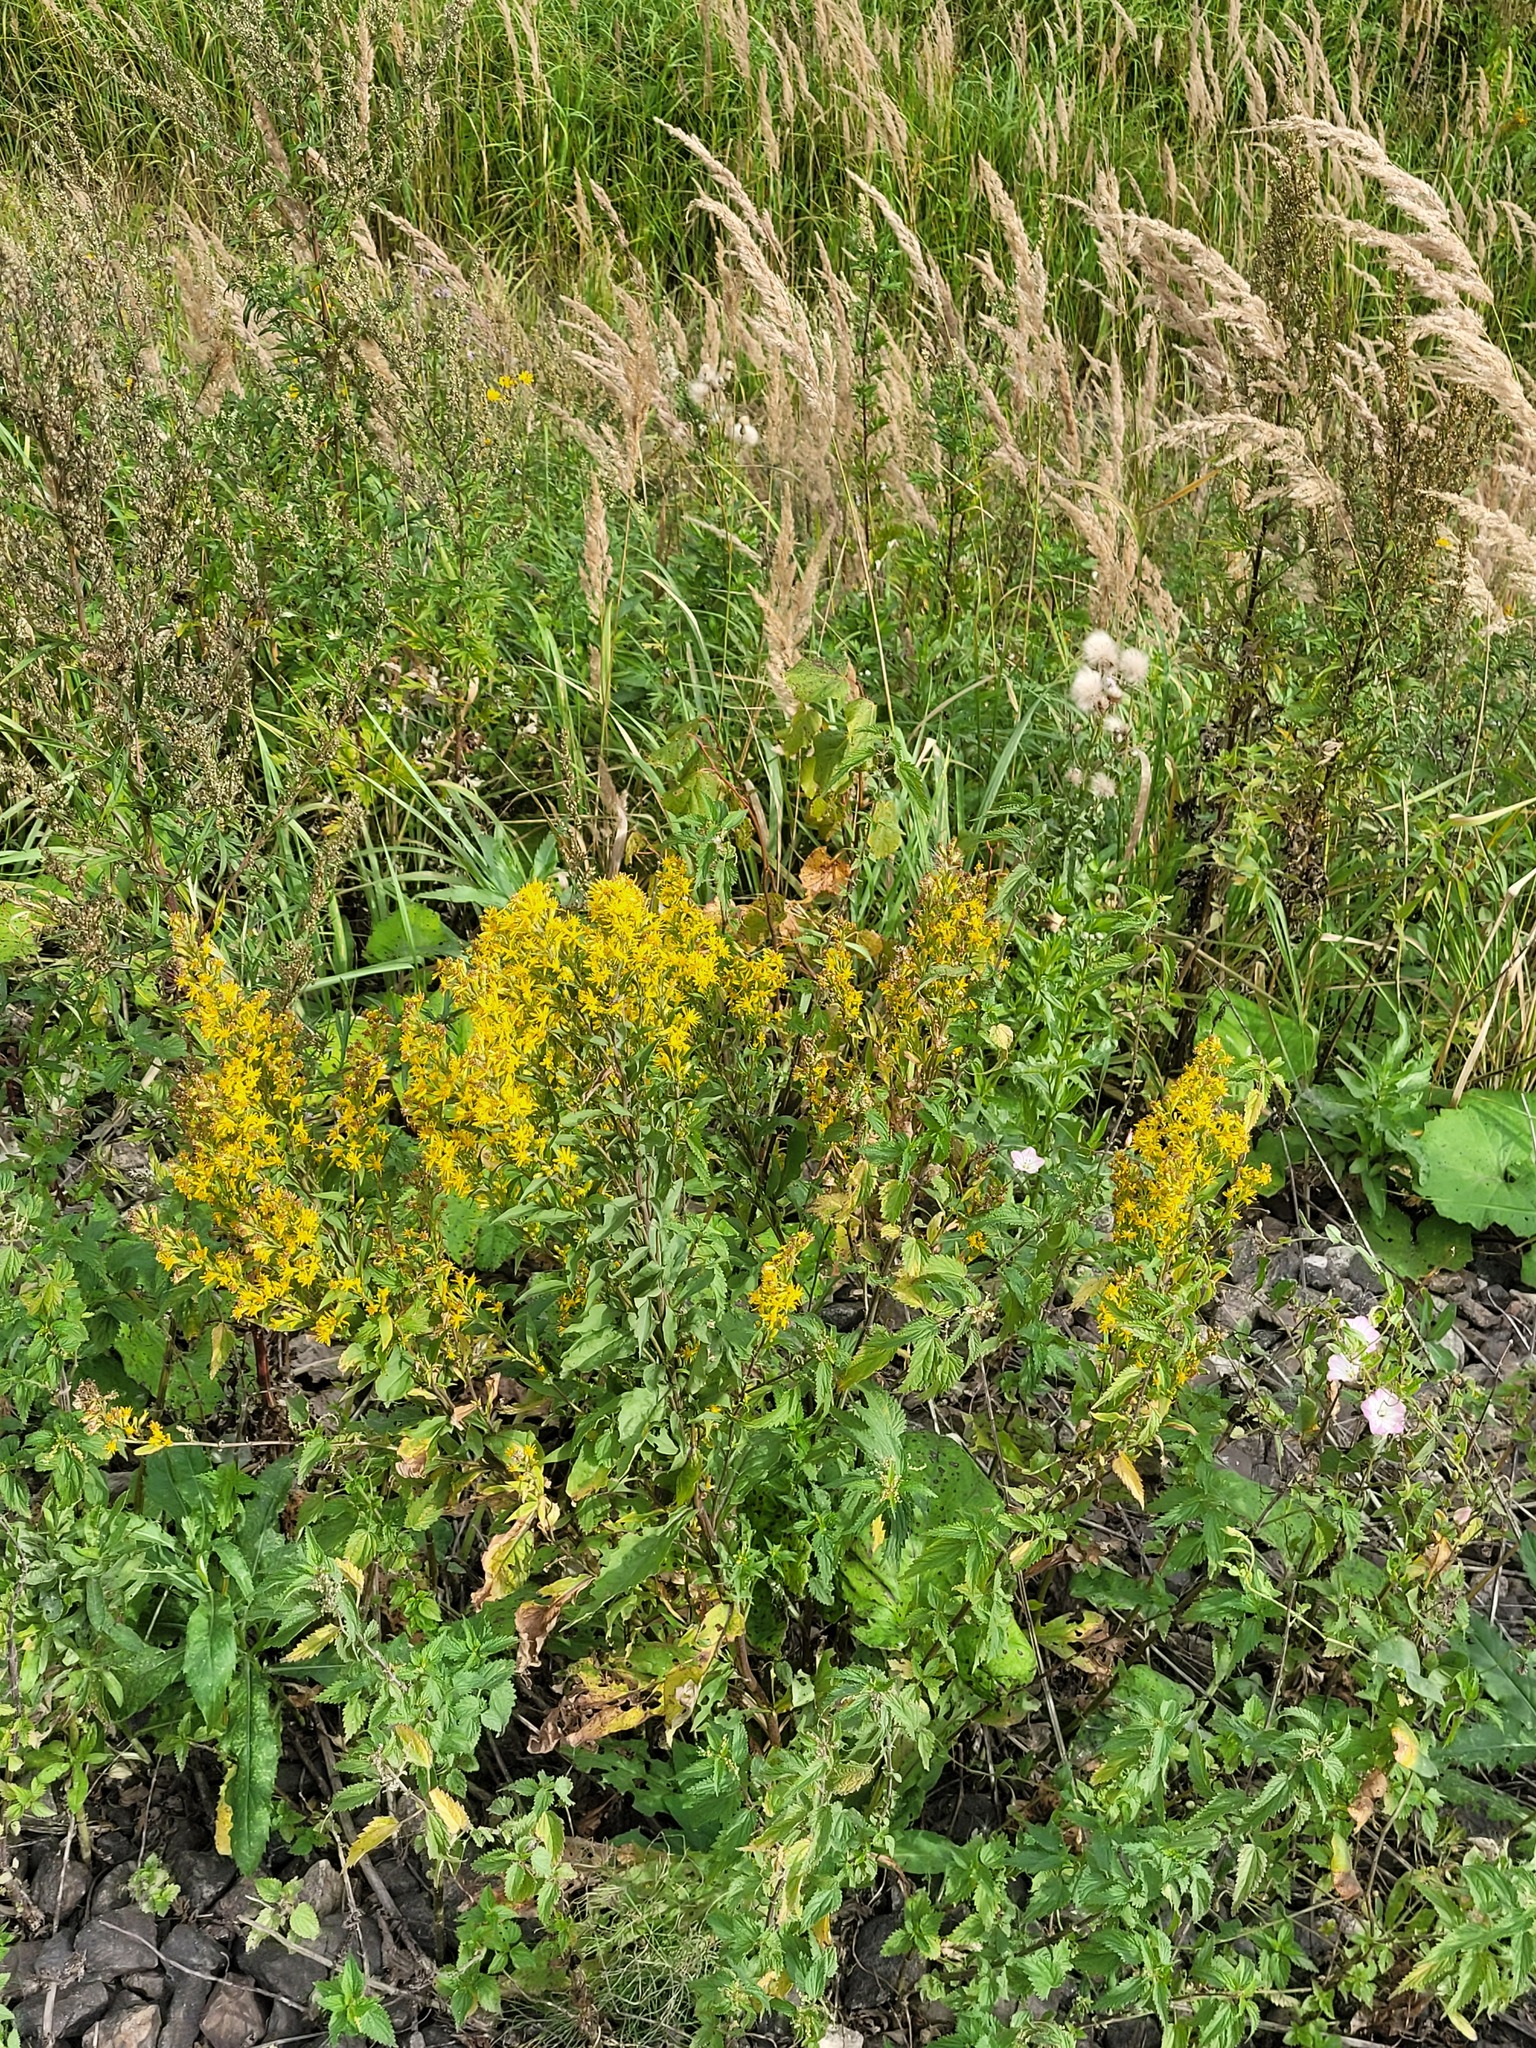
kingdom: Plantae
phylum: Tracheophyta
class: Magnoliopsida
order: Asterales
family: Asteraceae
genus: Solidago
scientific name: Solidago virgaurea
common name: Goldenrod
